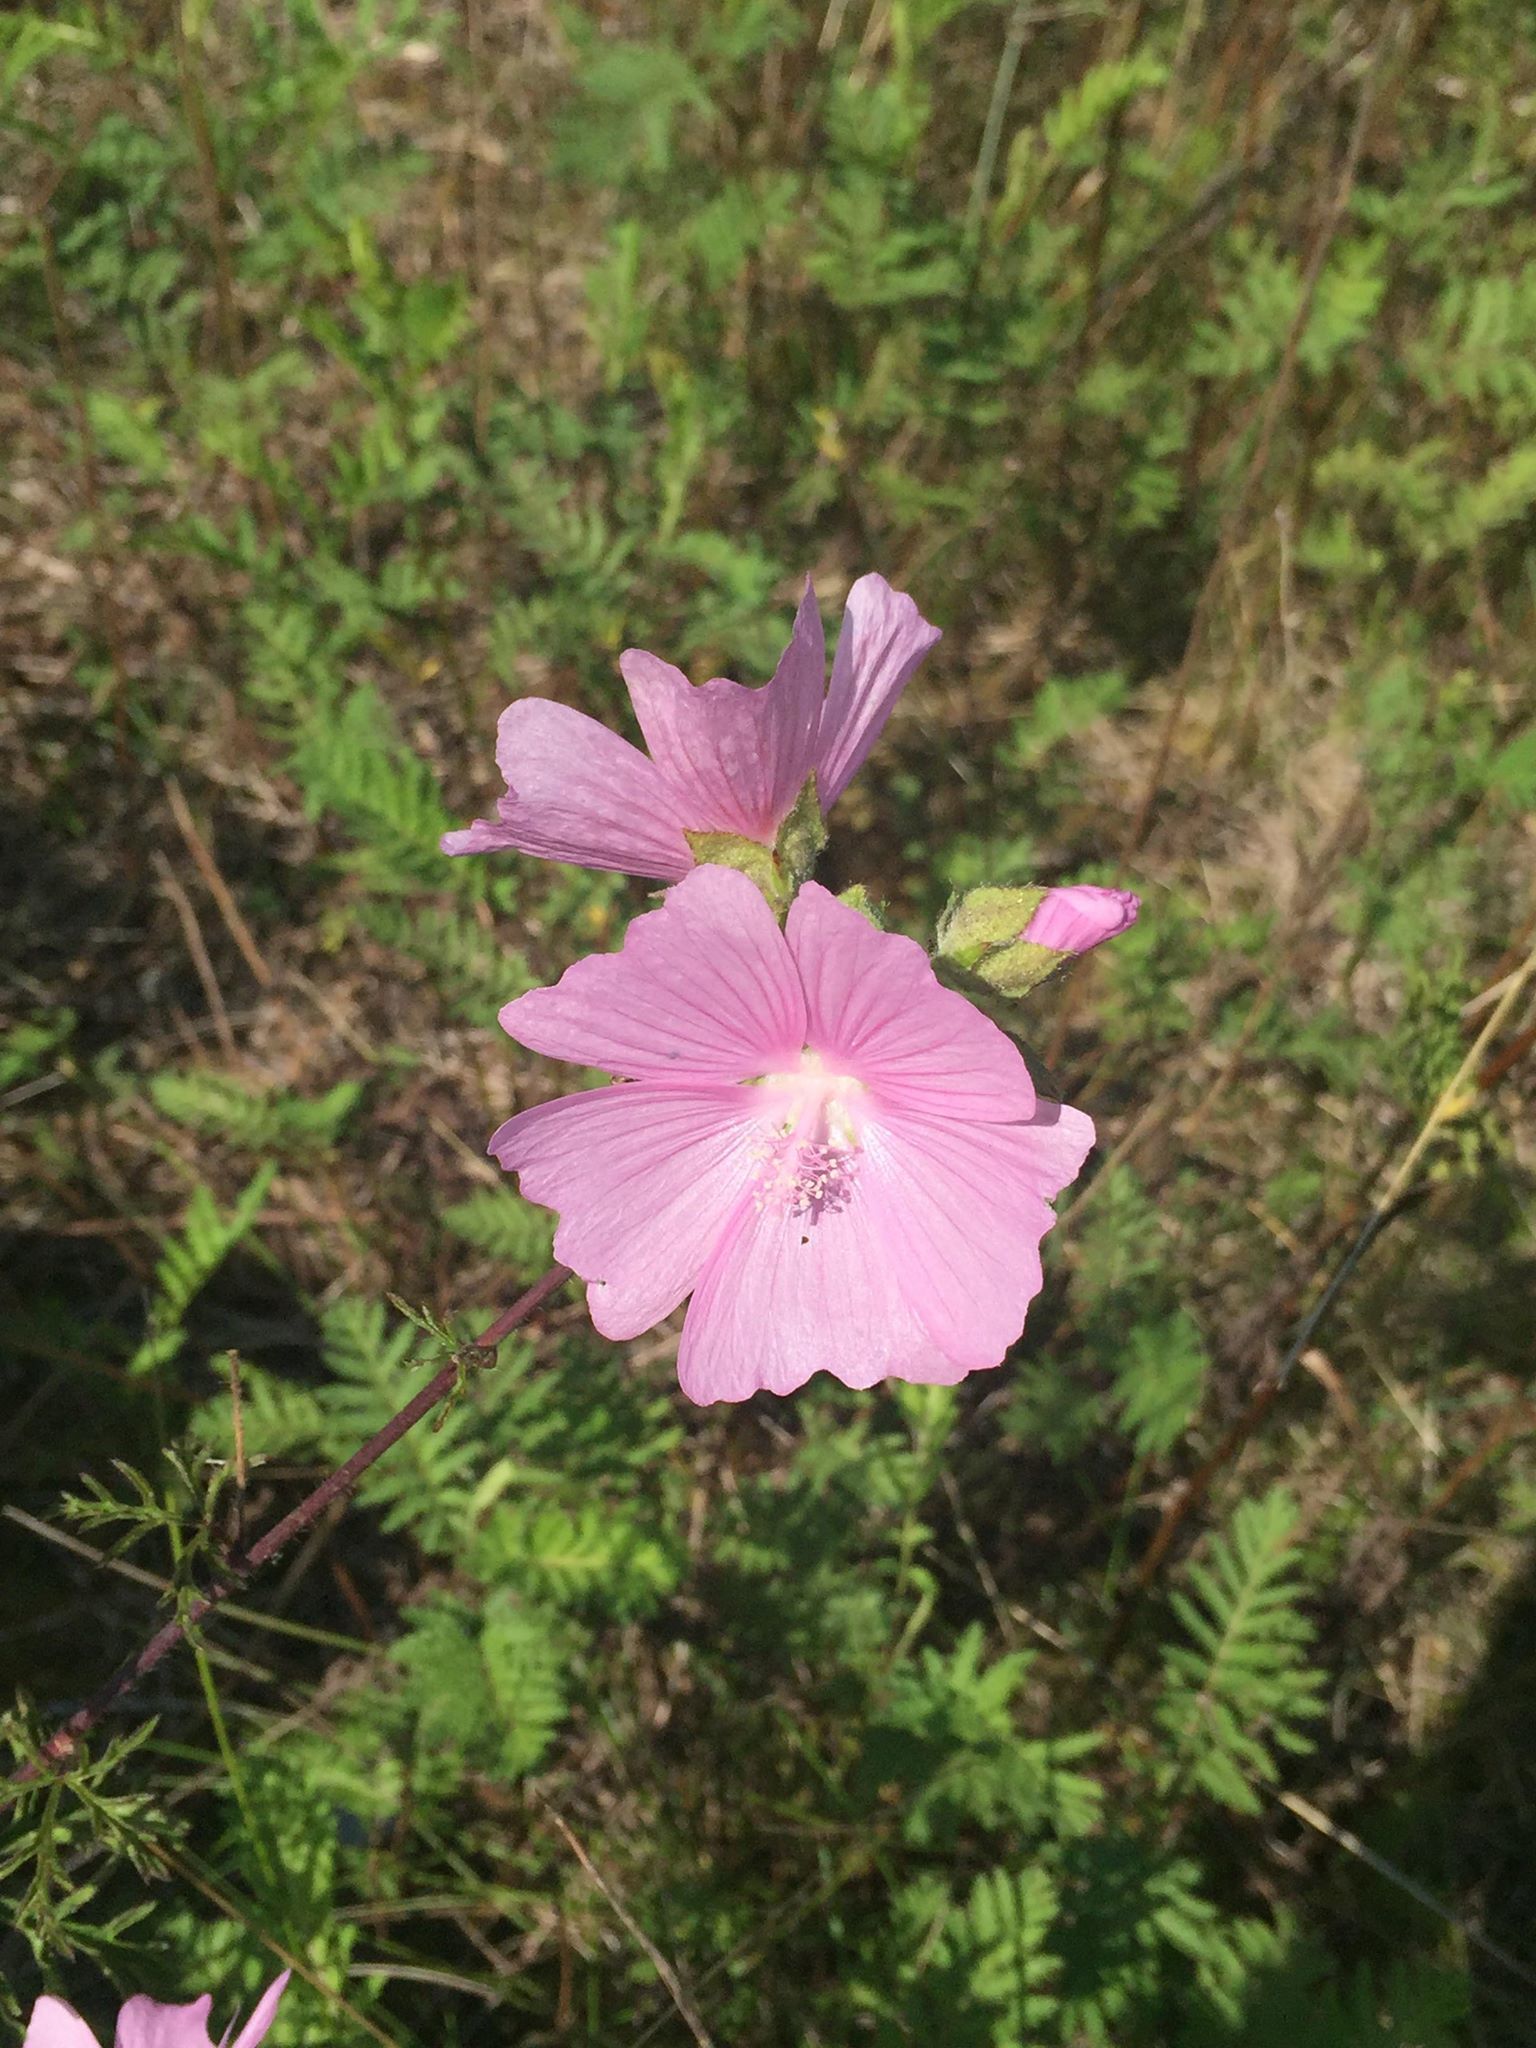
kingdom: Plantae
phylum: Tracheophyta
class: Magnoliopsida
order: Malvales
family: Malvaceae
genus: Malva
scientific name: Malva moschata
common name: Musk mallow
